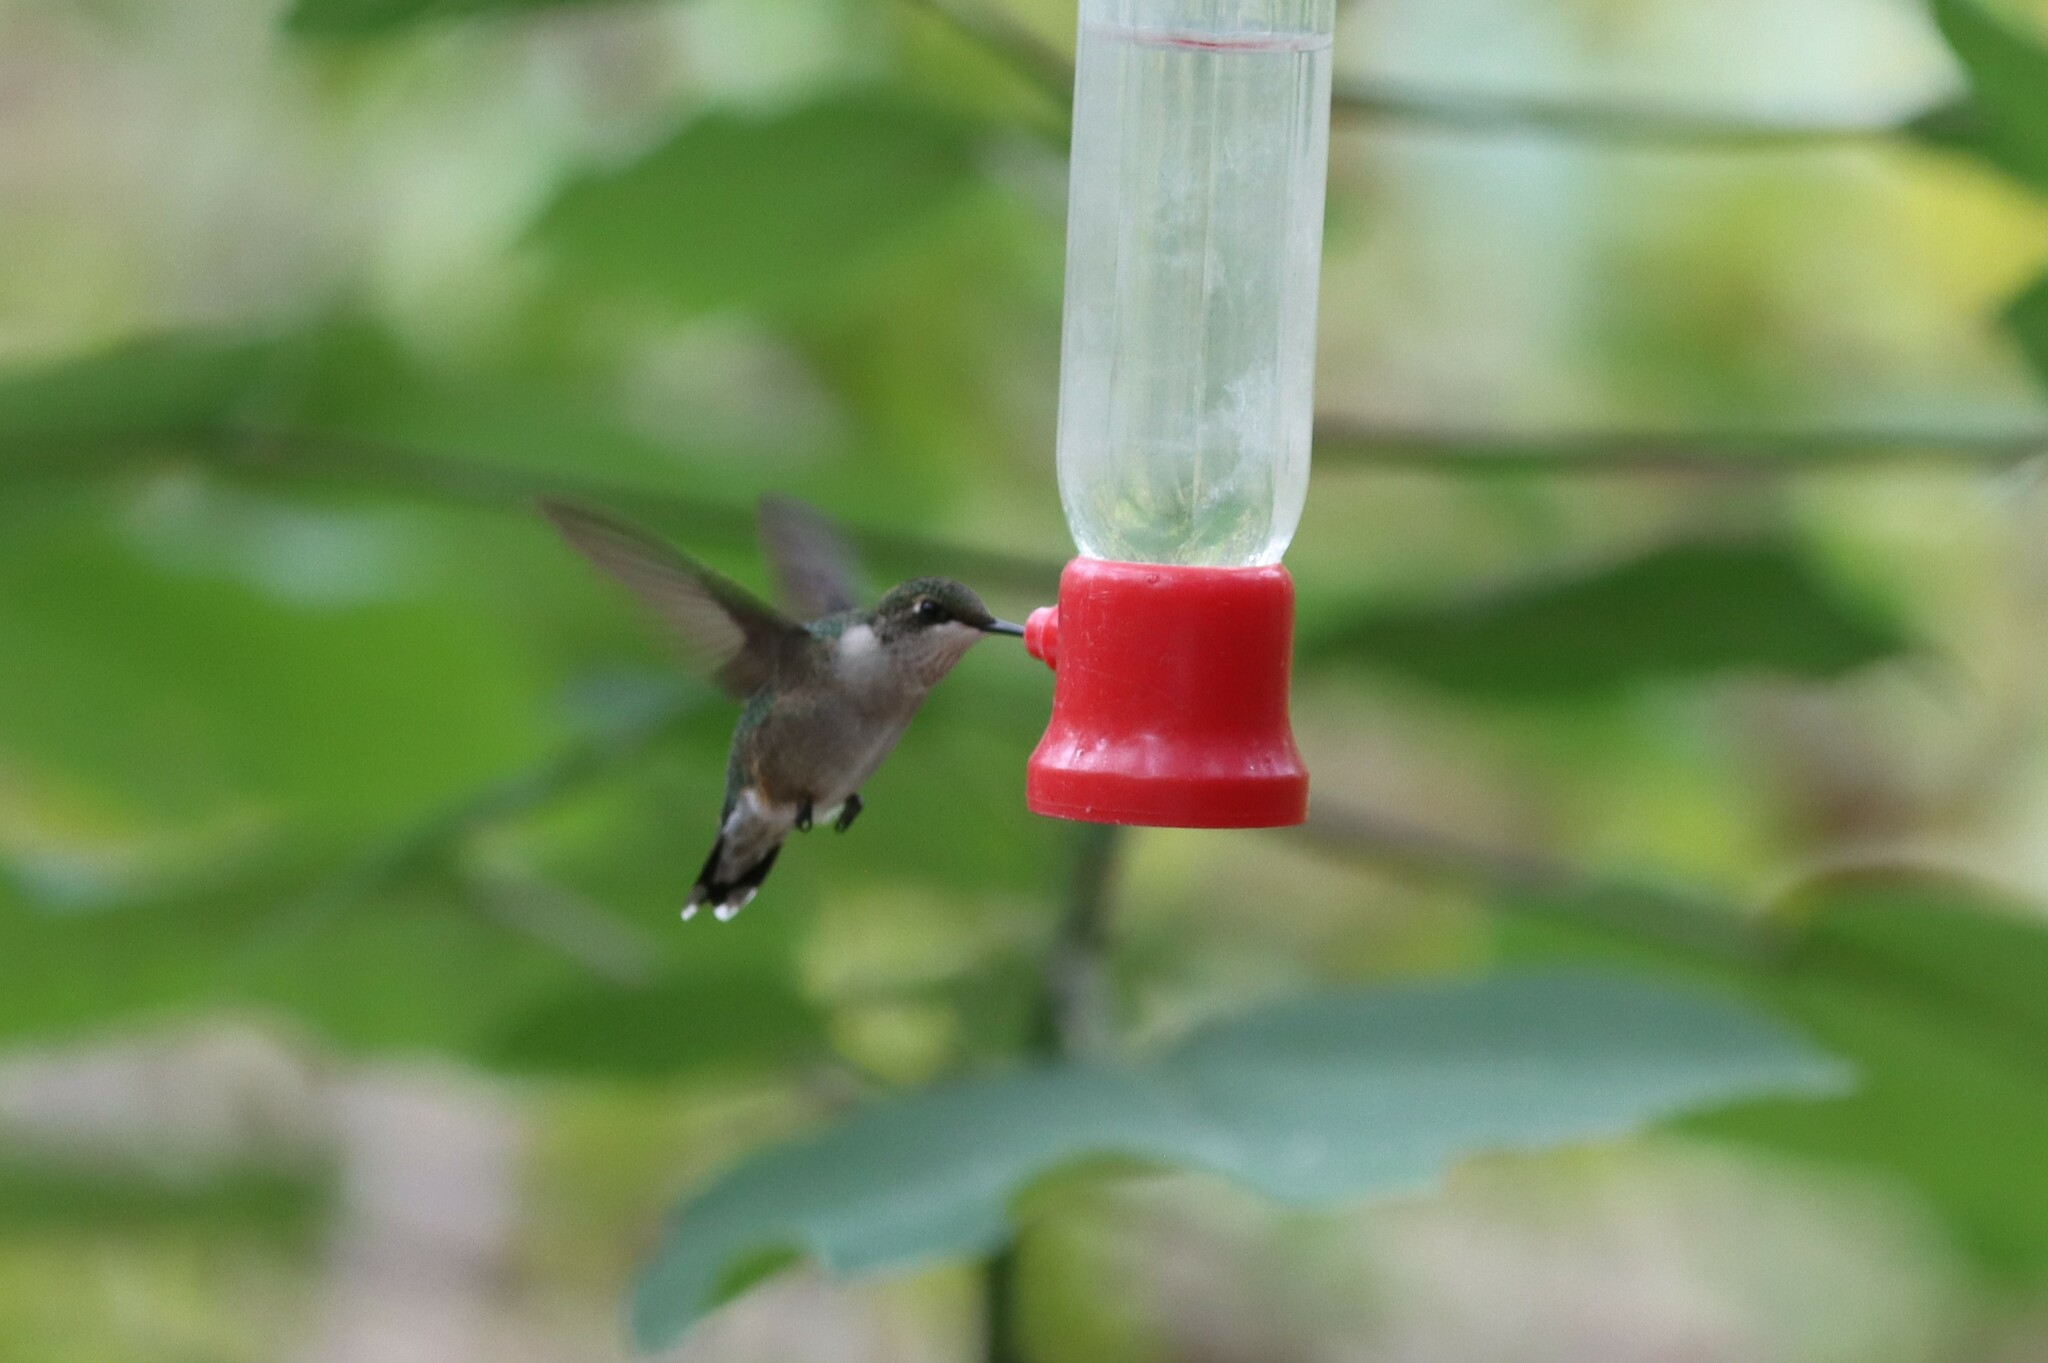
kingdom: Animalia
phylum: Chordata
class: Aves
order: Apodiformes
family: Trochilidae
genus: Archilochus
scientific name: Archilochus colubris
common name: Ruby-throated hummingbird
